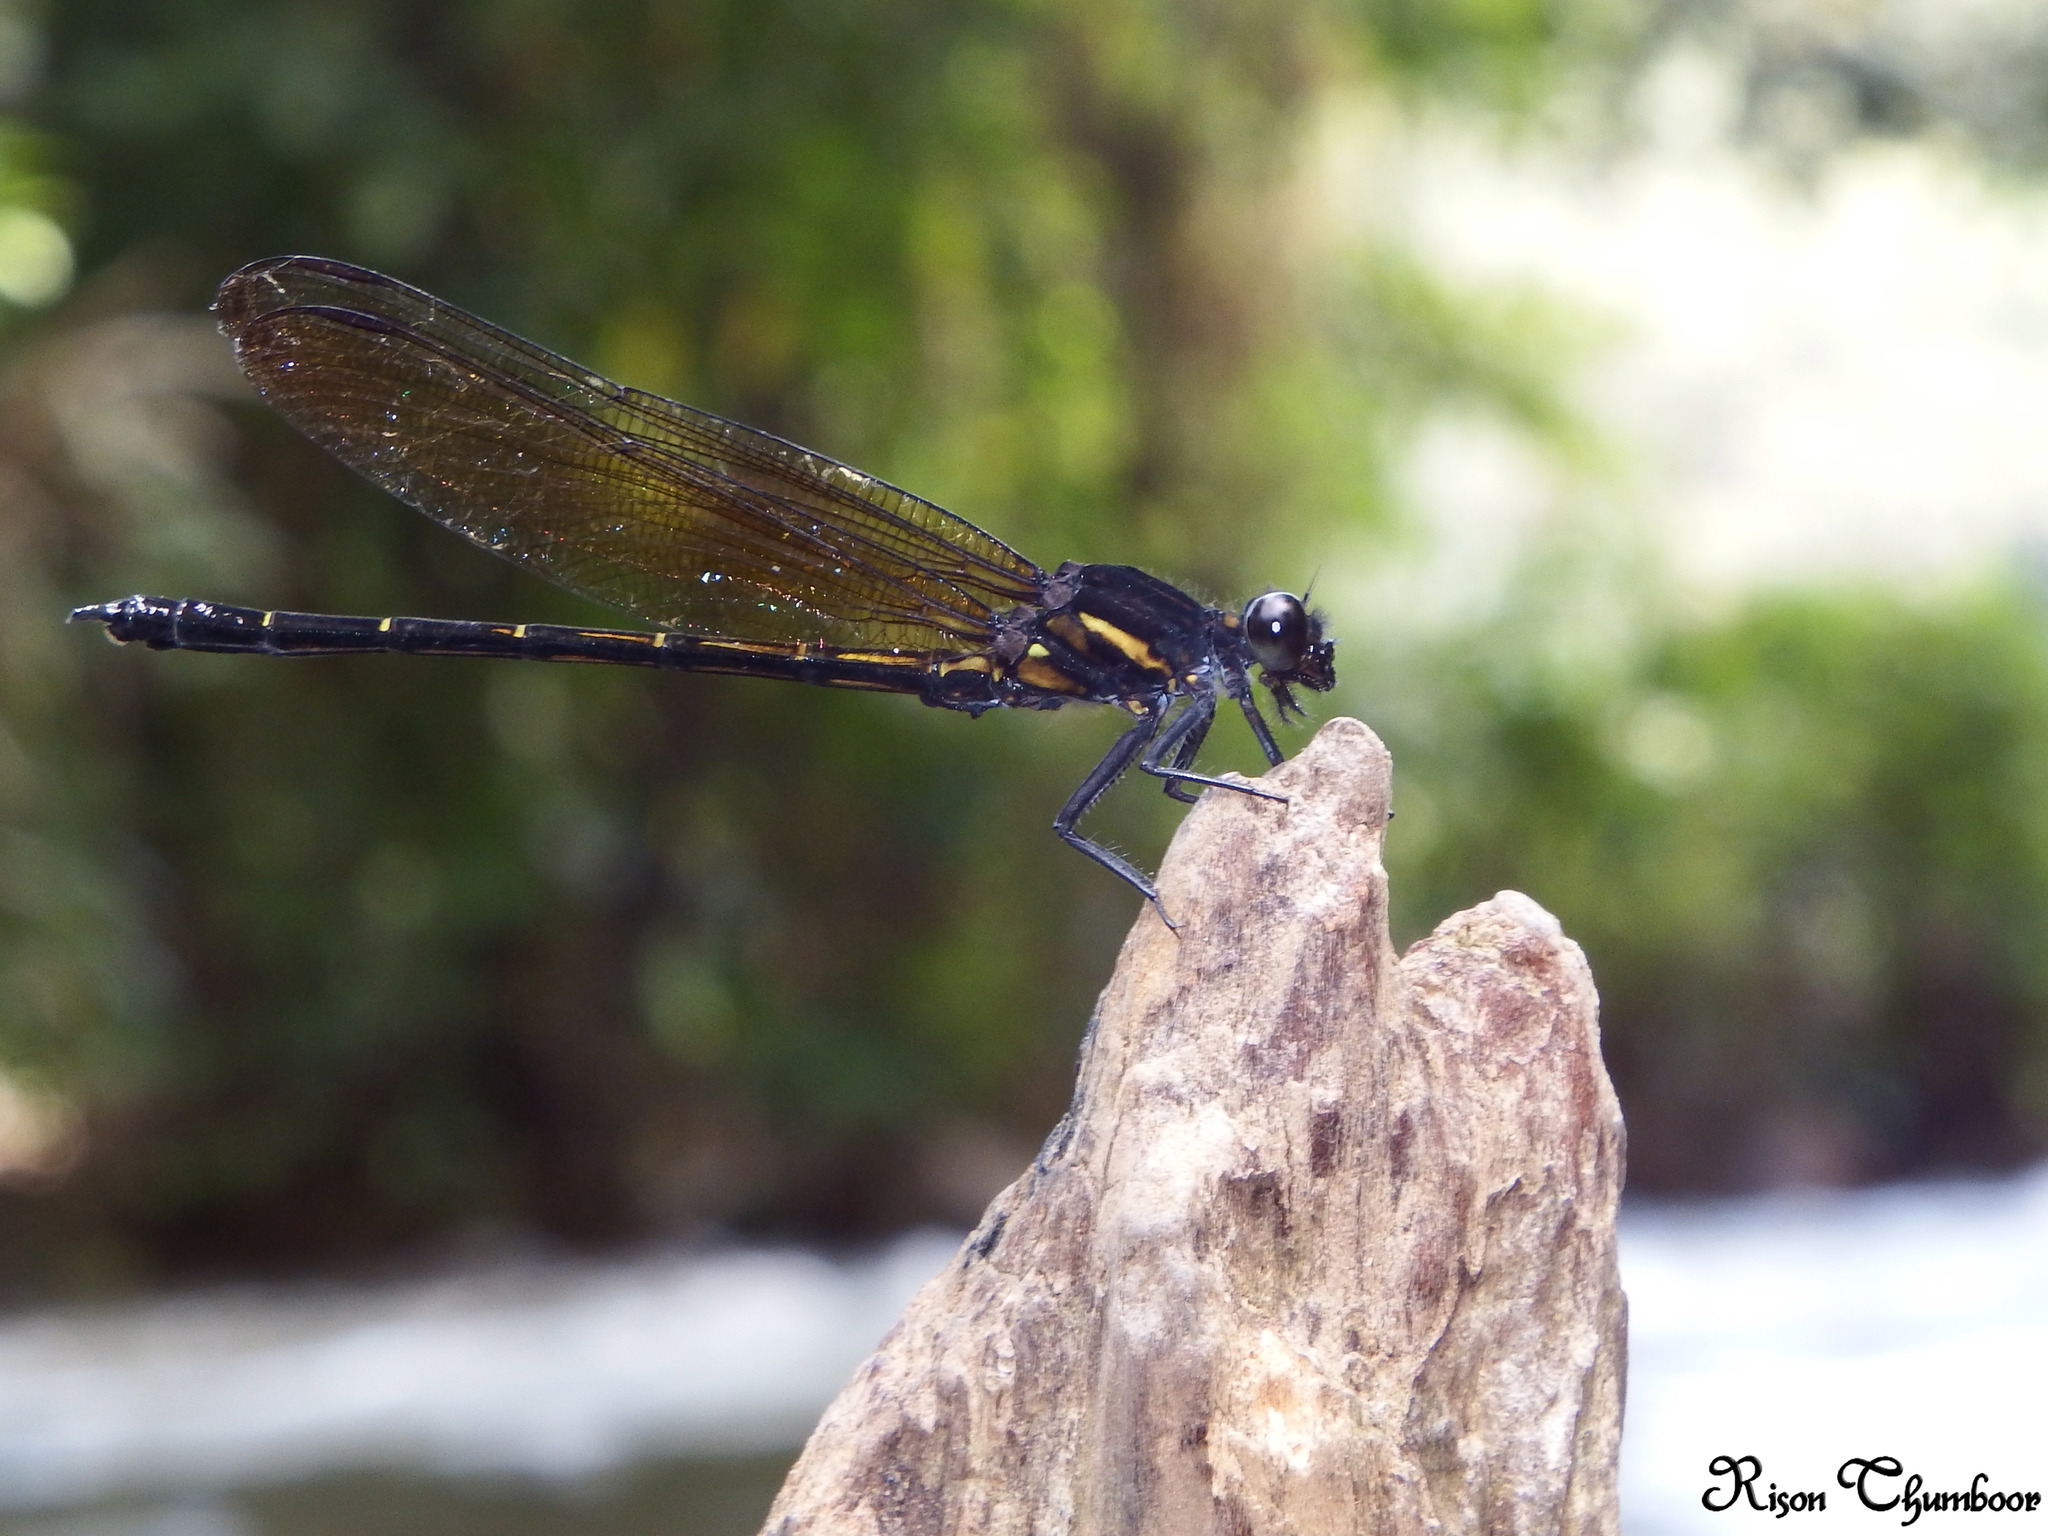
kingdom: Animalia
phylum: Arthropoda
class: Insecta
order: Odonata
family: Euphaeidae
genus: Dysphaea
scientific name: Dysphaea ethela
